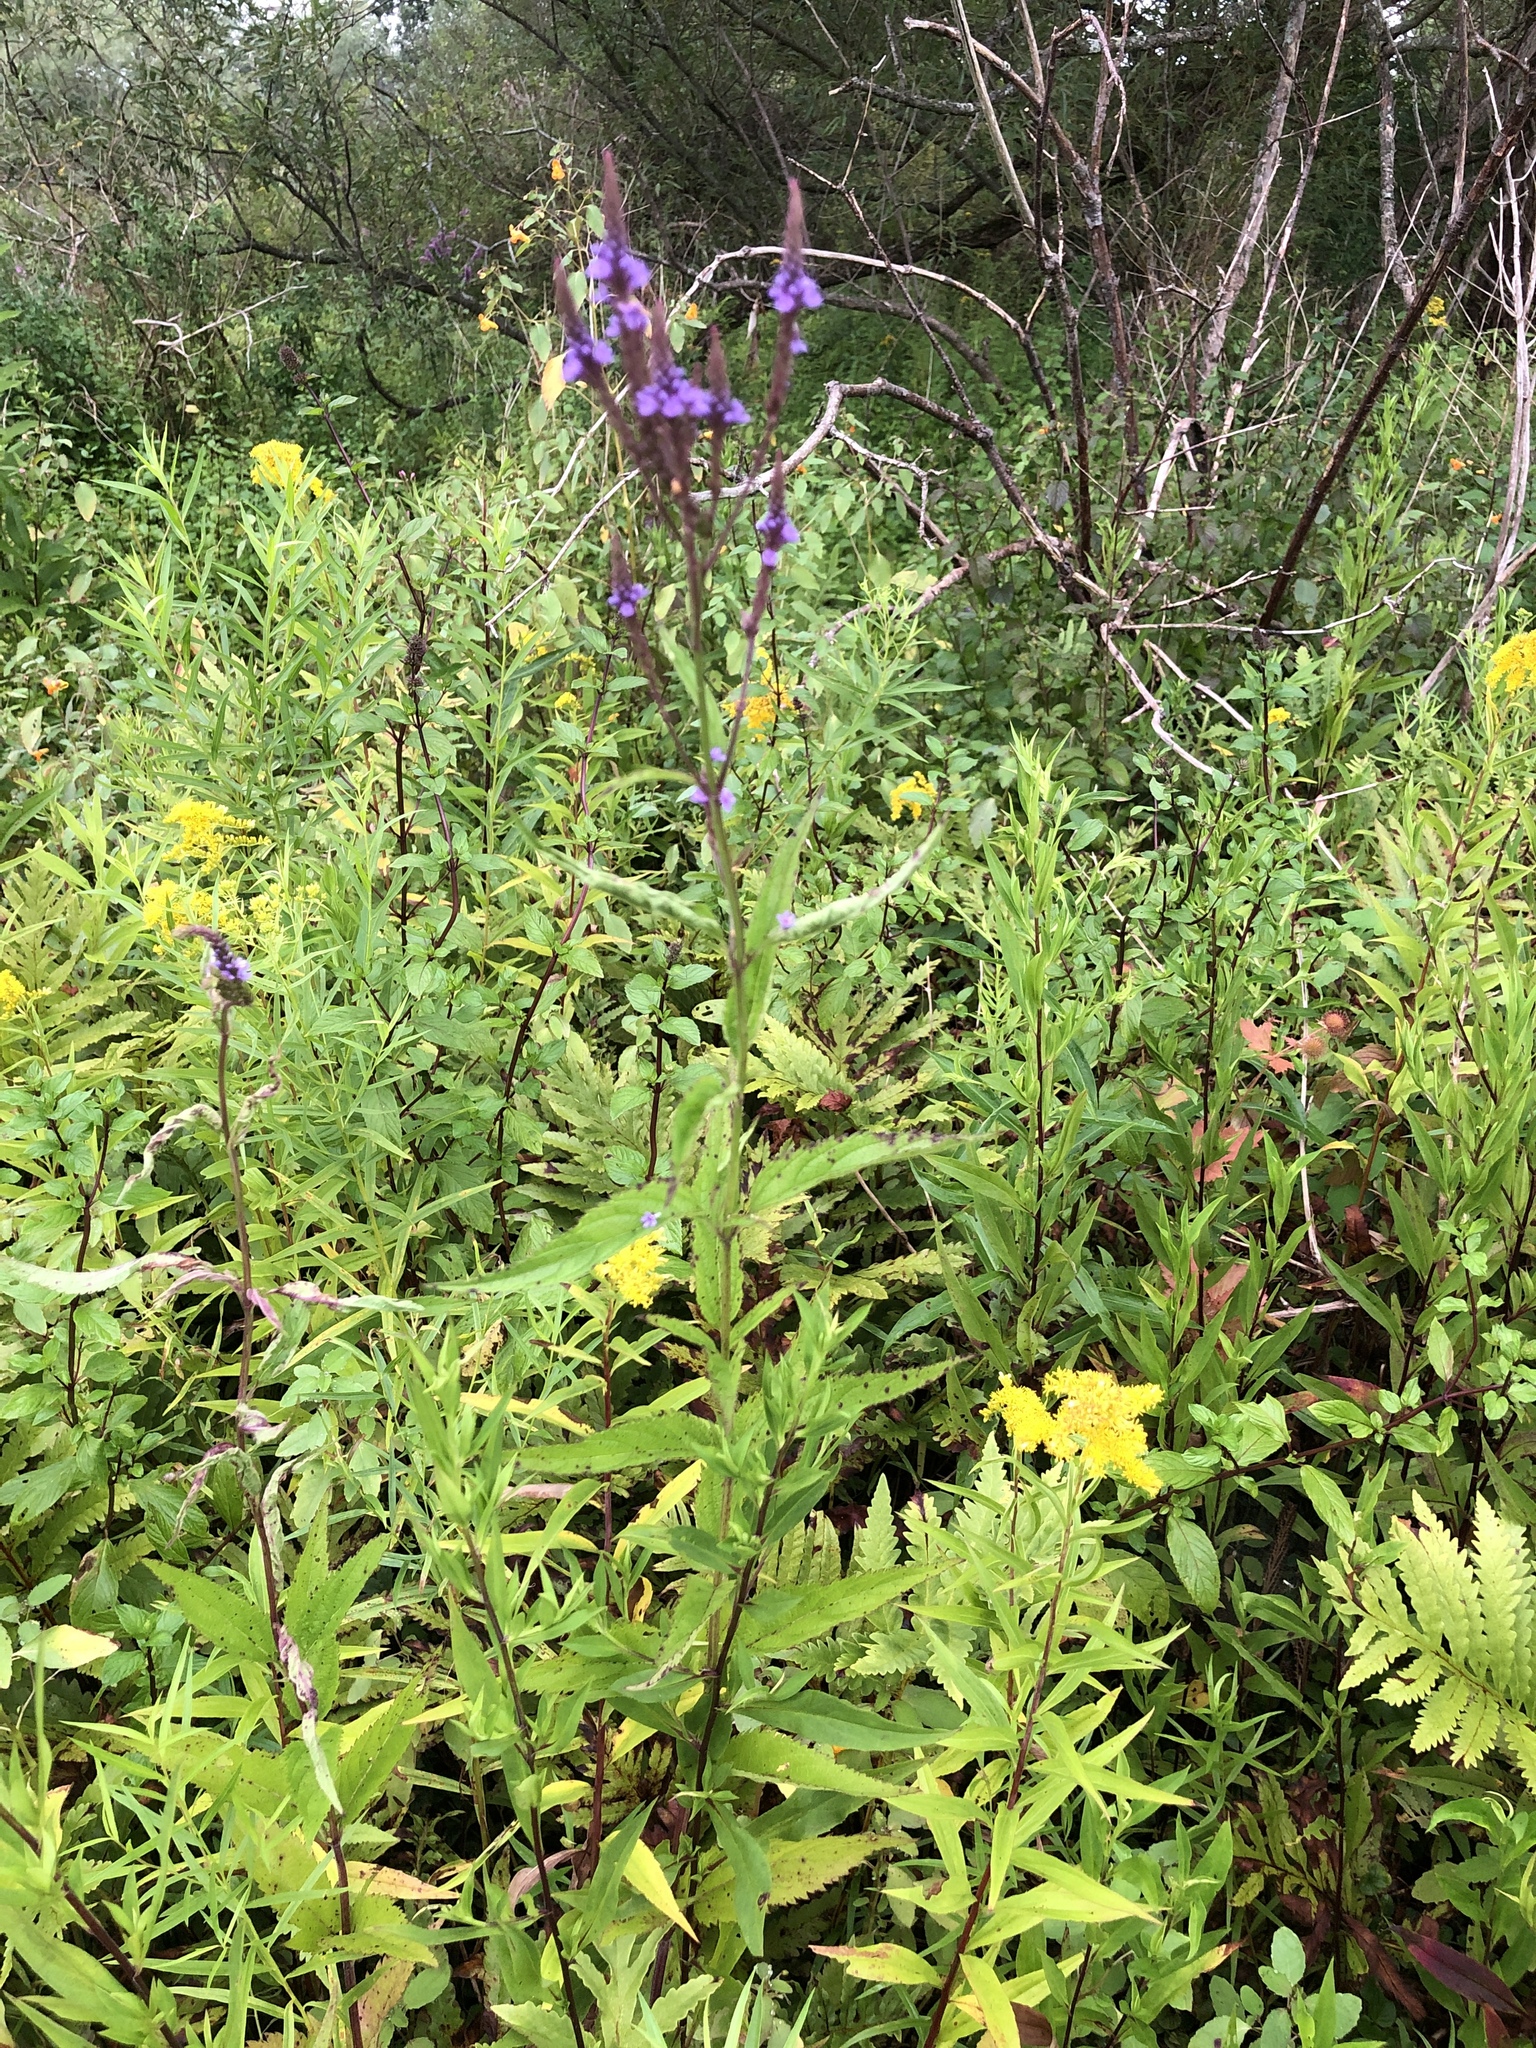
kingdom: Plantae
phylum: Tracheophyta
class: Magnoliopsida
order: Lamiales
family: Verbenaceae
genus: Verbena
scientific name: Verbena hastata
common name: American blue vervain
